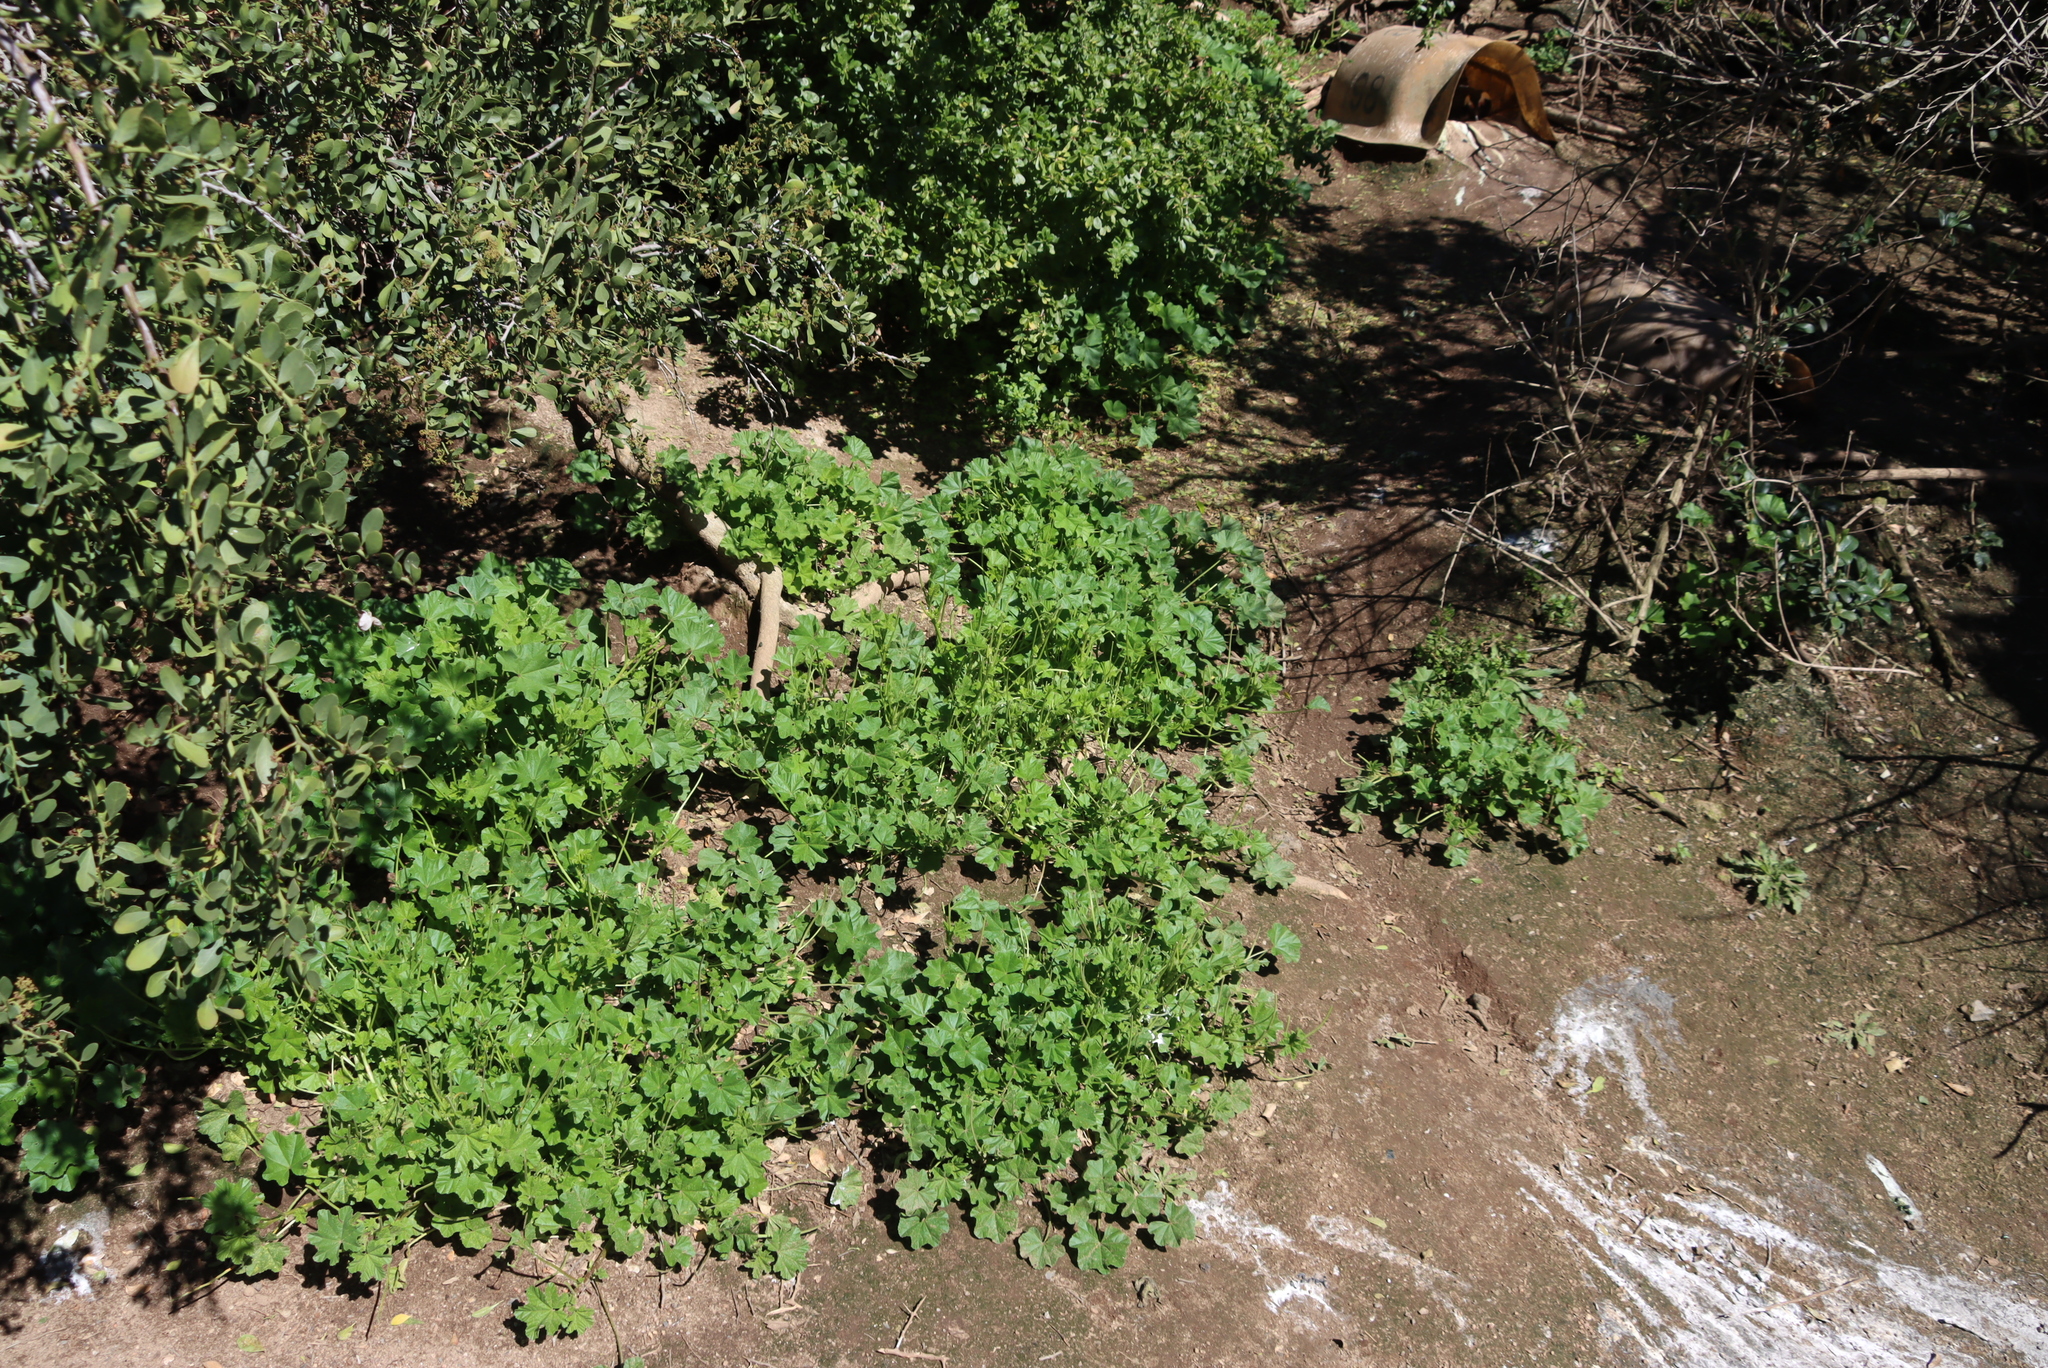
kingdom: Plantae
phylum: Tracheophyta
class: Magnoliopsida
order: Malvales
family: Malvaceae
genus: Malva
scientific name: Malva parviflora
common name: Least mallow
